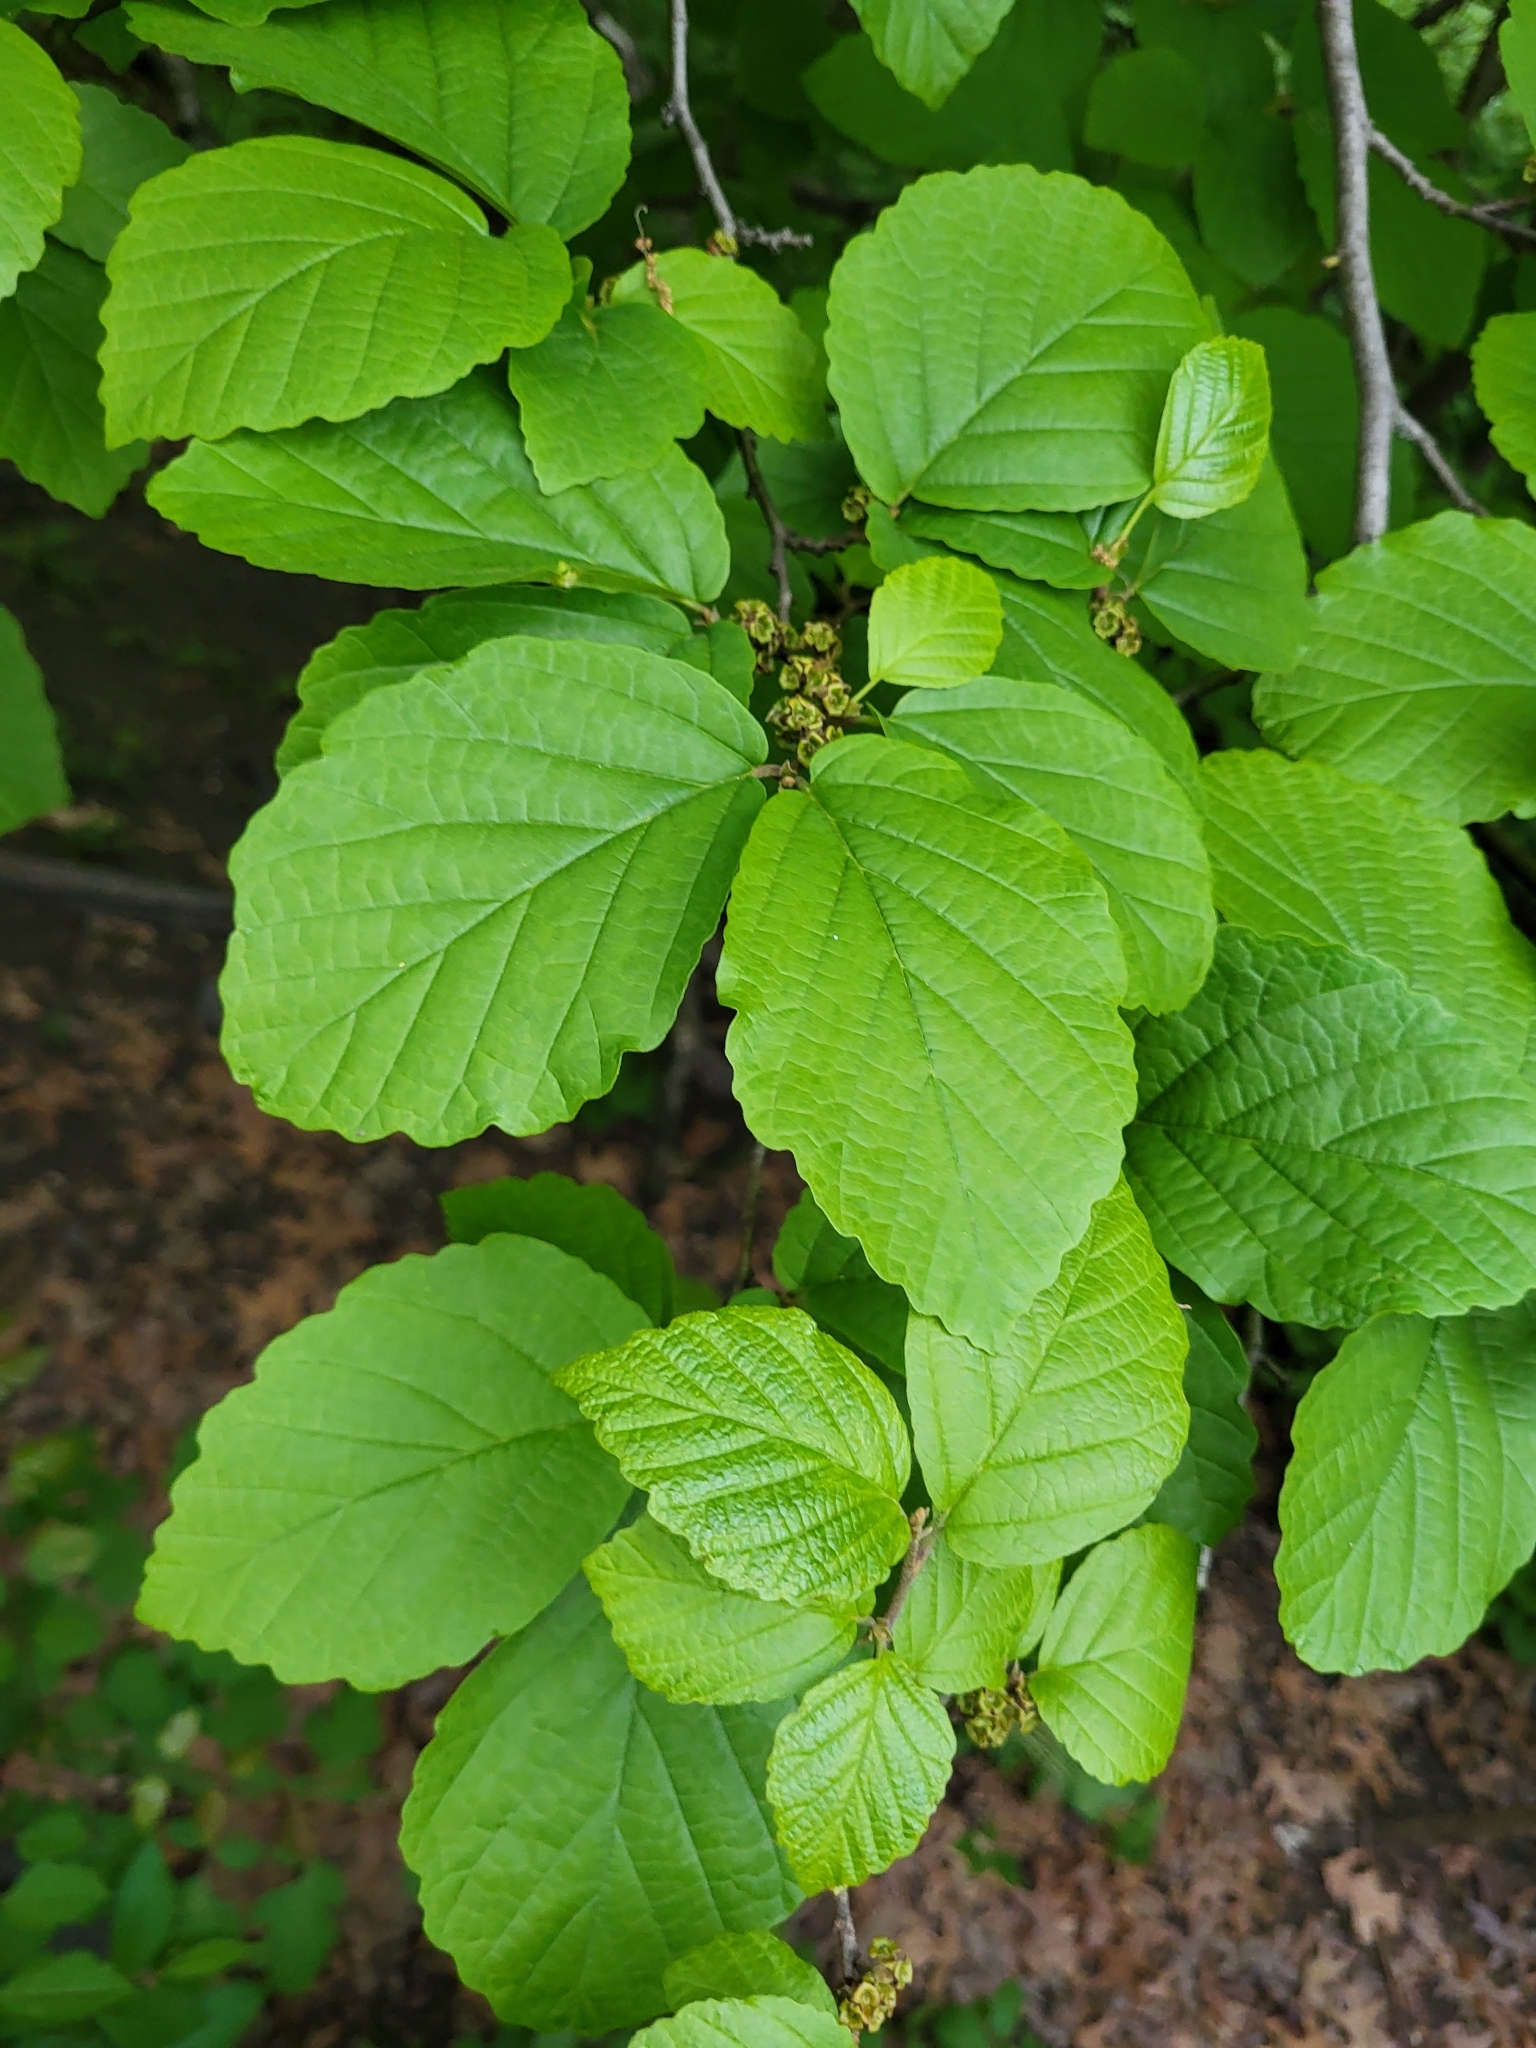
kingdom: Plantae
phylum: Tracheophyta
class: Magnoliopsida
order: Saxifragales
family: Hamamelidaceae
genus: Hamamelis
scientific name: Hamamelis virginiana
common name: Witch-hazel
